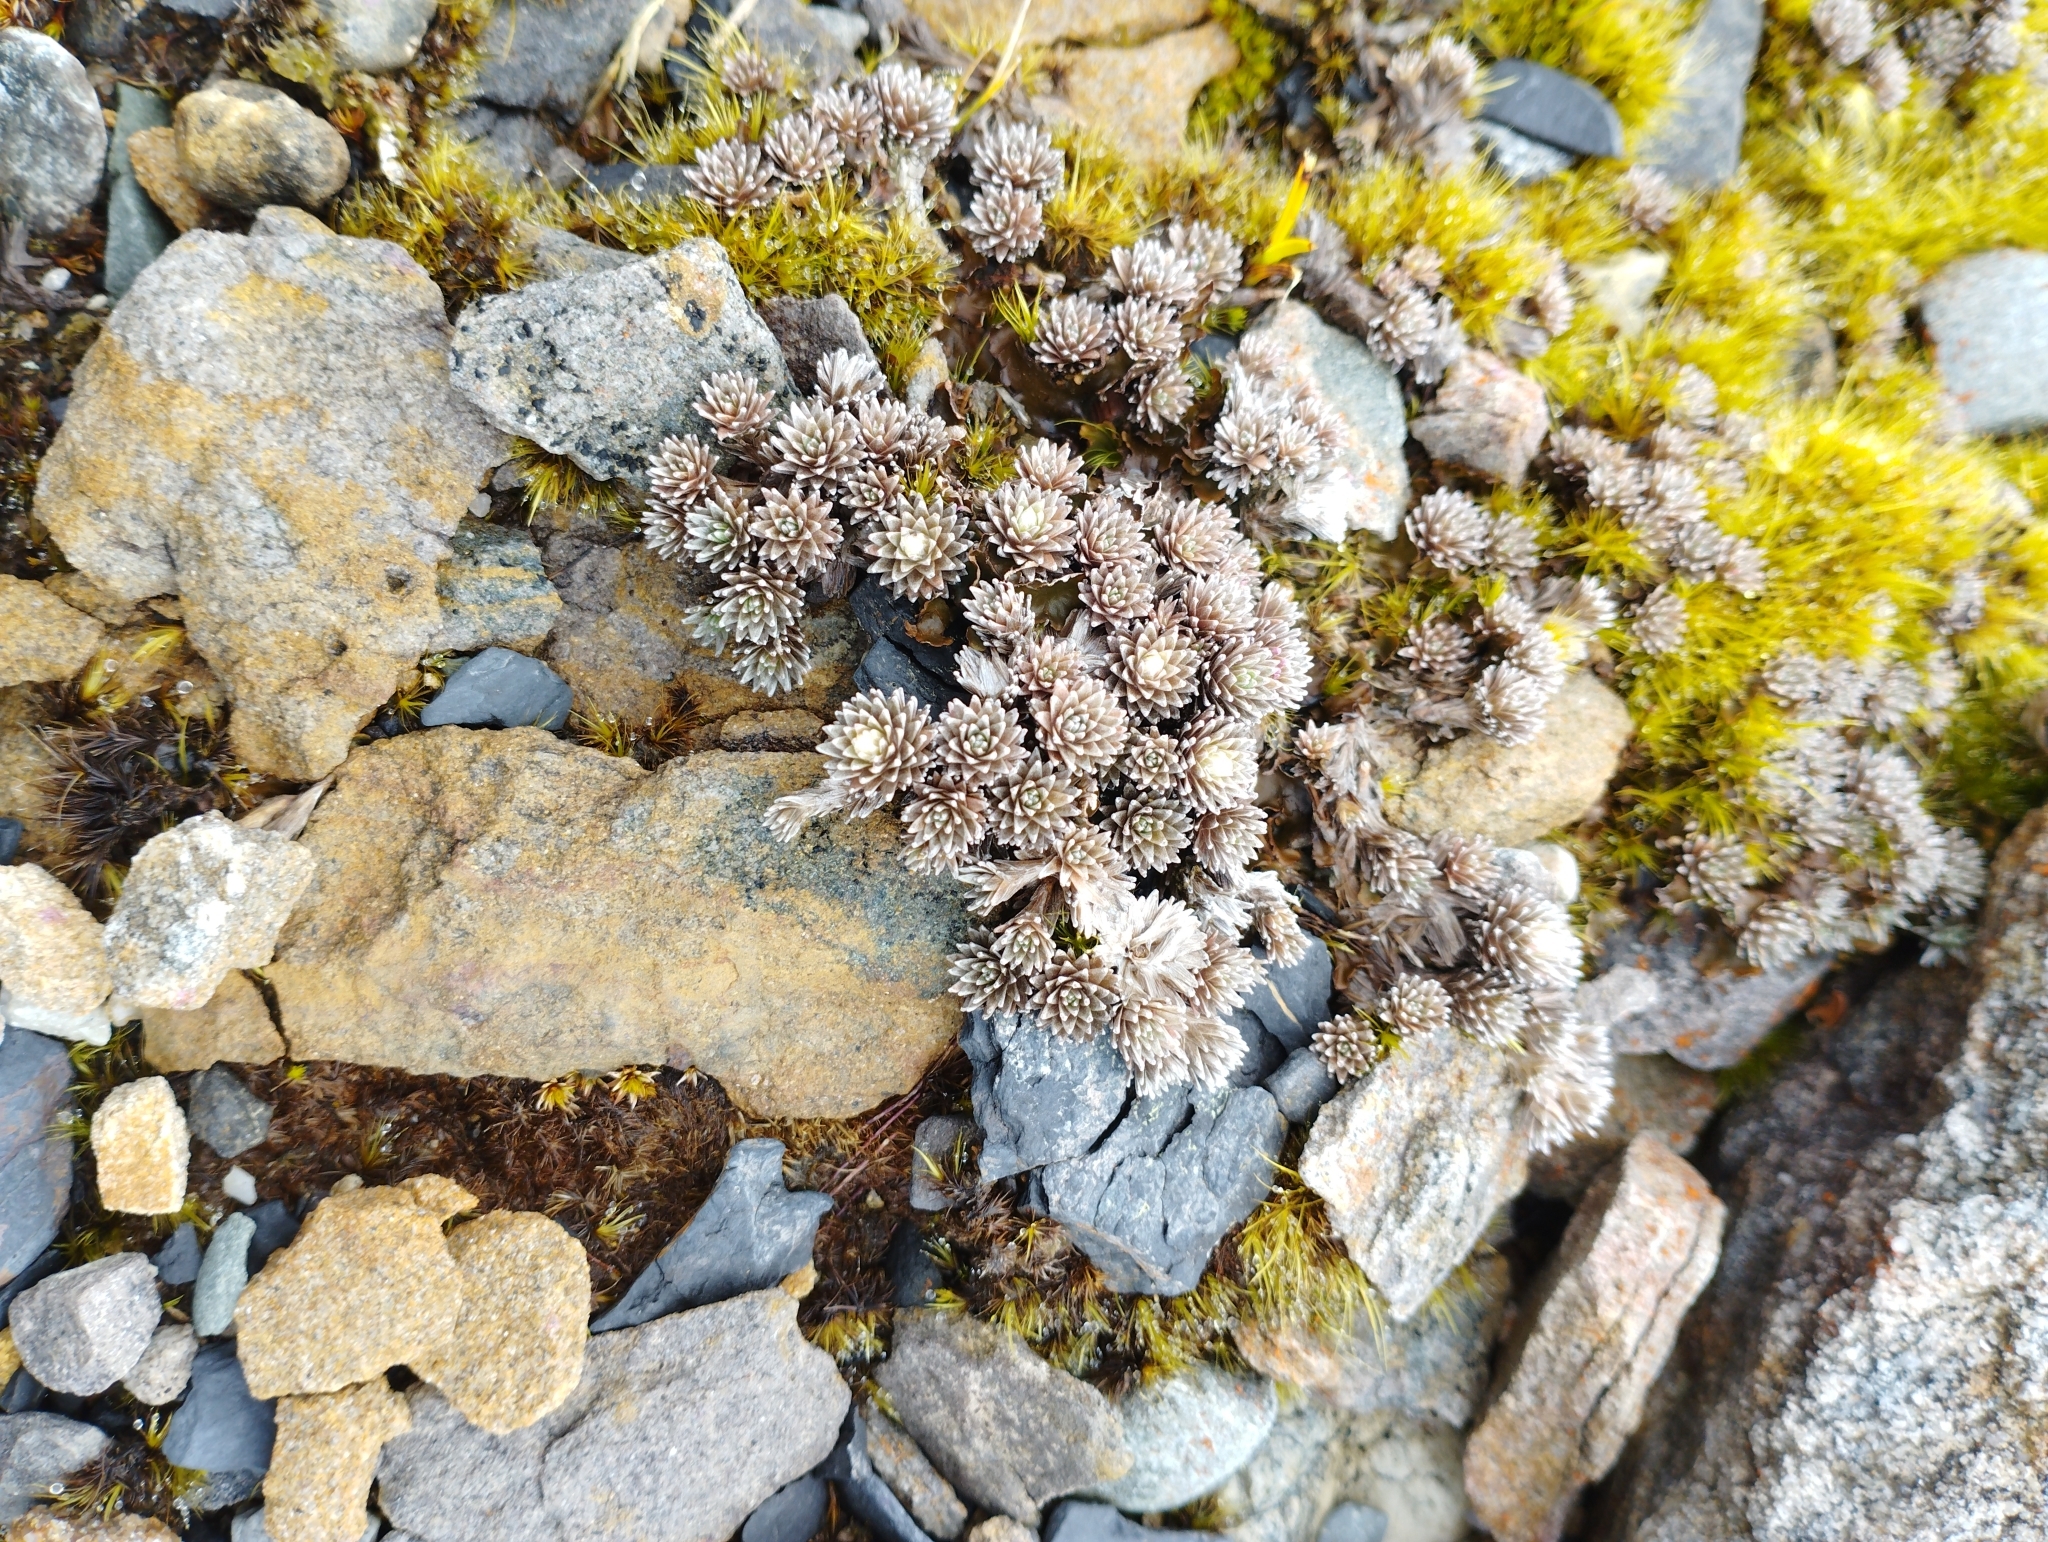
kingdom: Plantae
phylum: Tracheophyta
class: Magnoliopsida
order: Asterales
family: Asteraceae
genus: Raoulia
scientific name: Raoulia grandiflora
